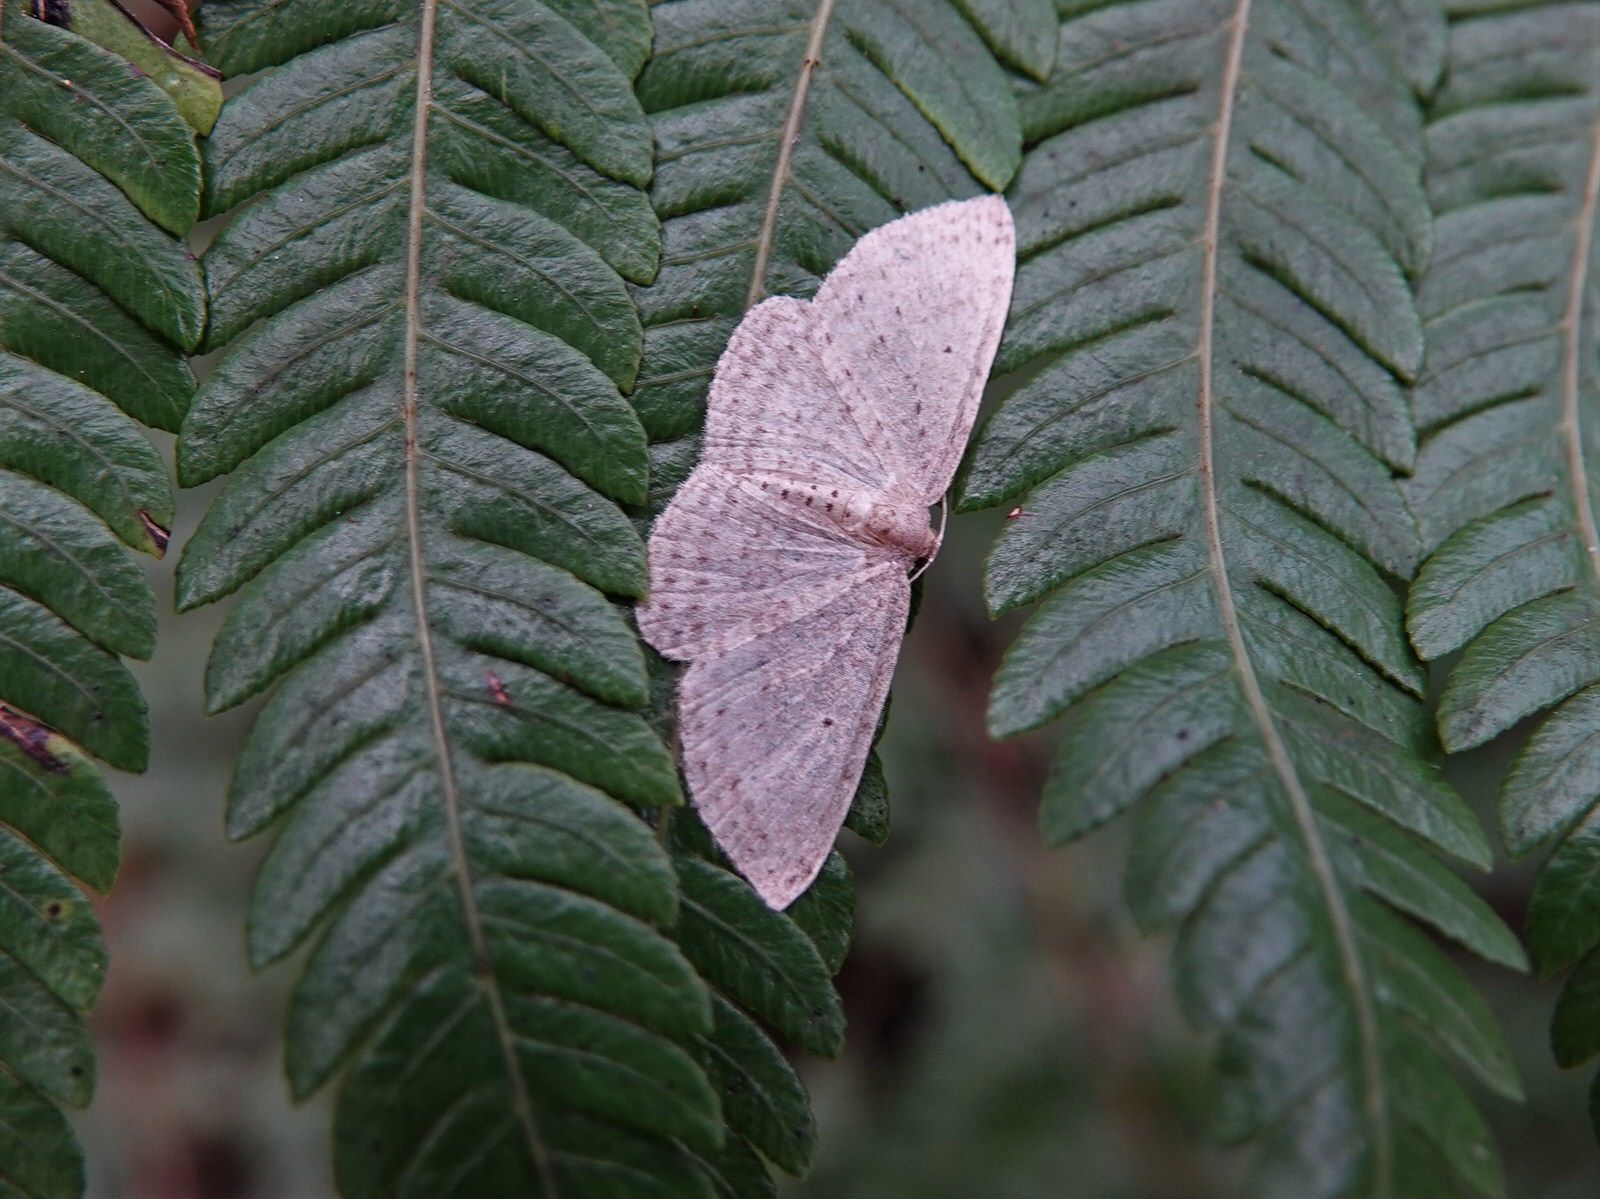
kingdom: Animalia
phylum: Arthropoda
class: Insecta
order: Lepidoptera
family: Geometridae
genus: Poecilasthena
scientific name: Poecilasthena schistaria
